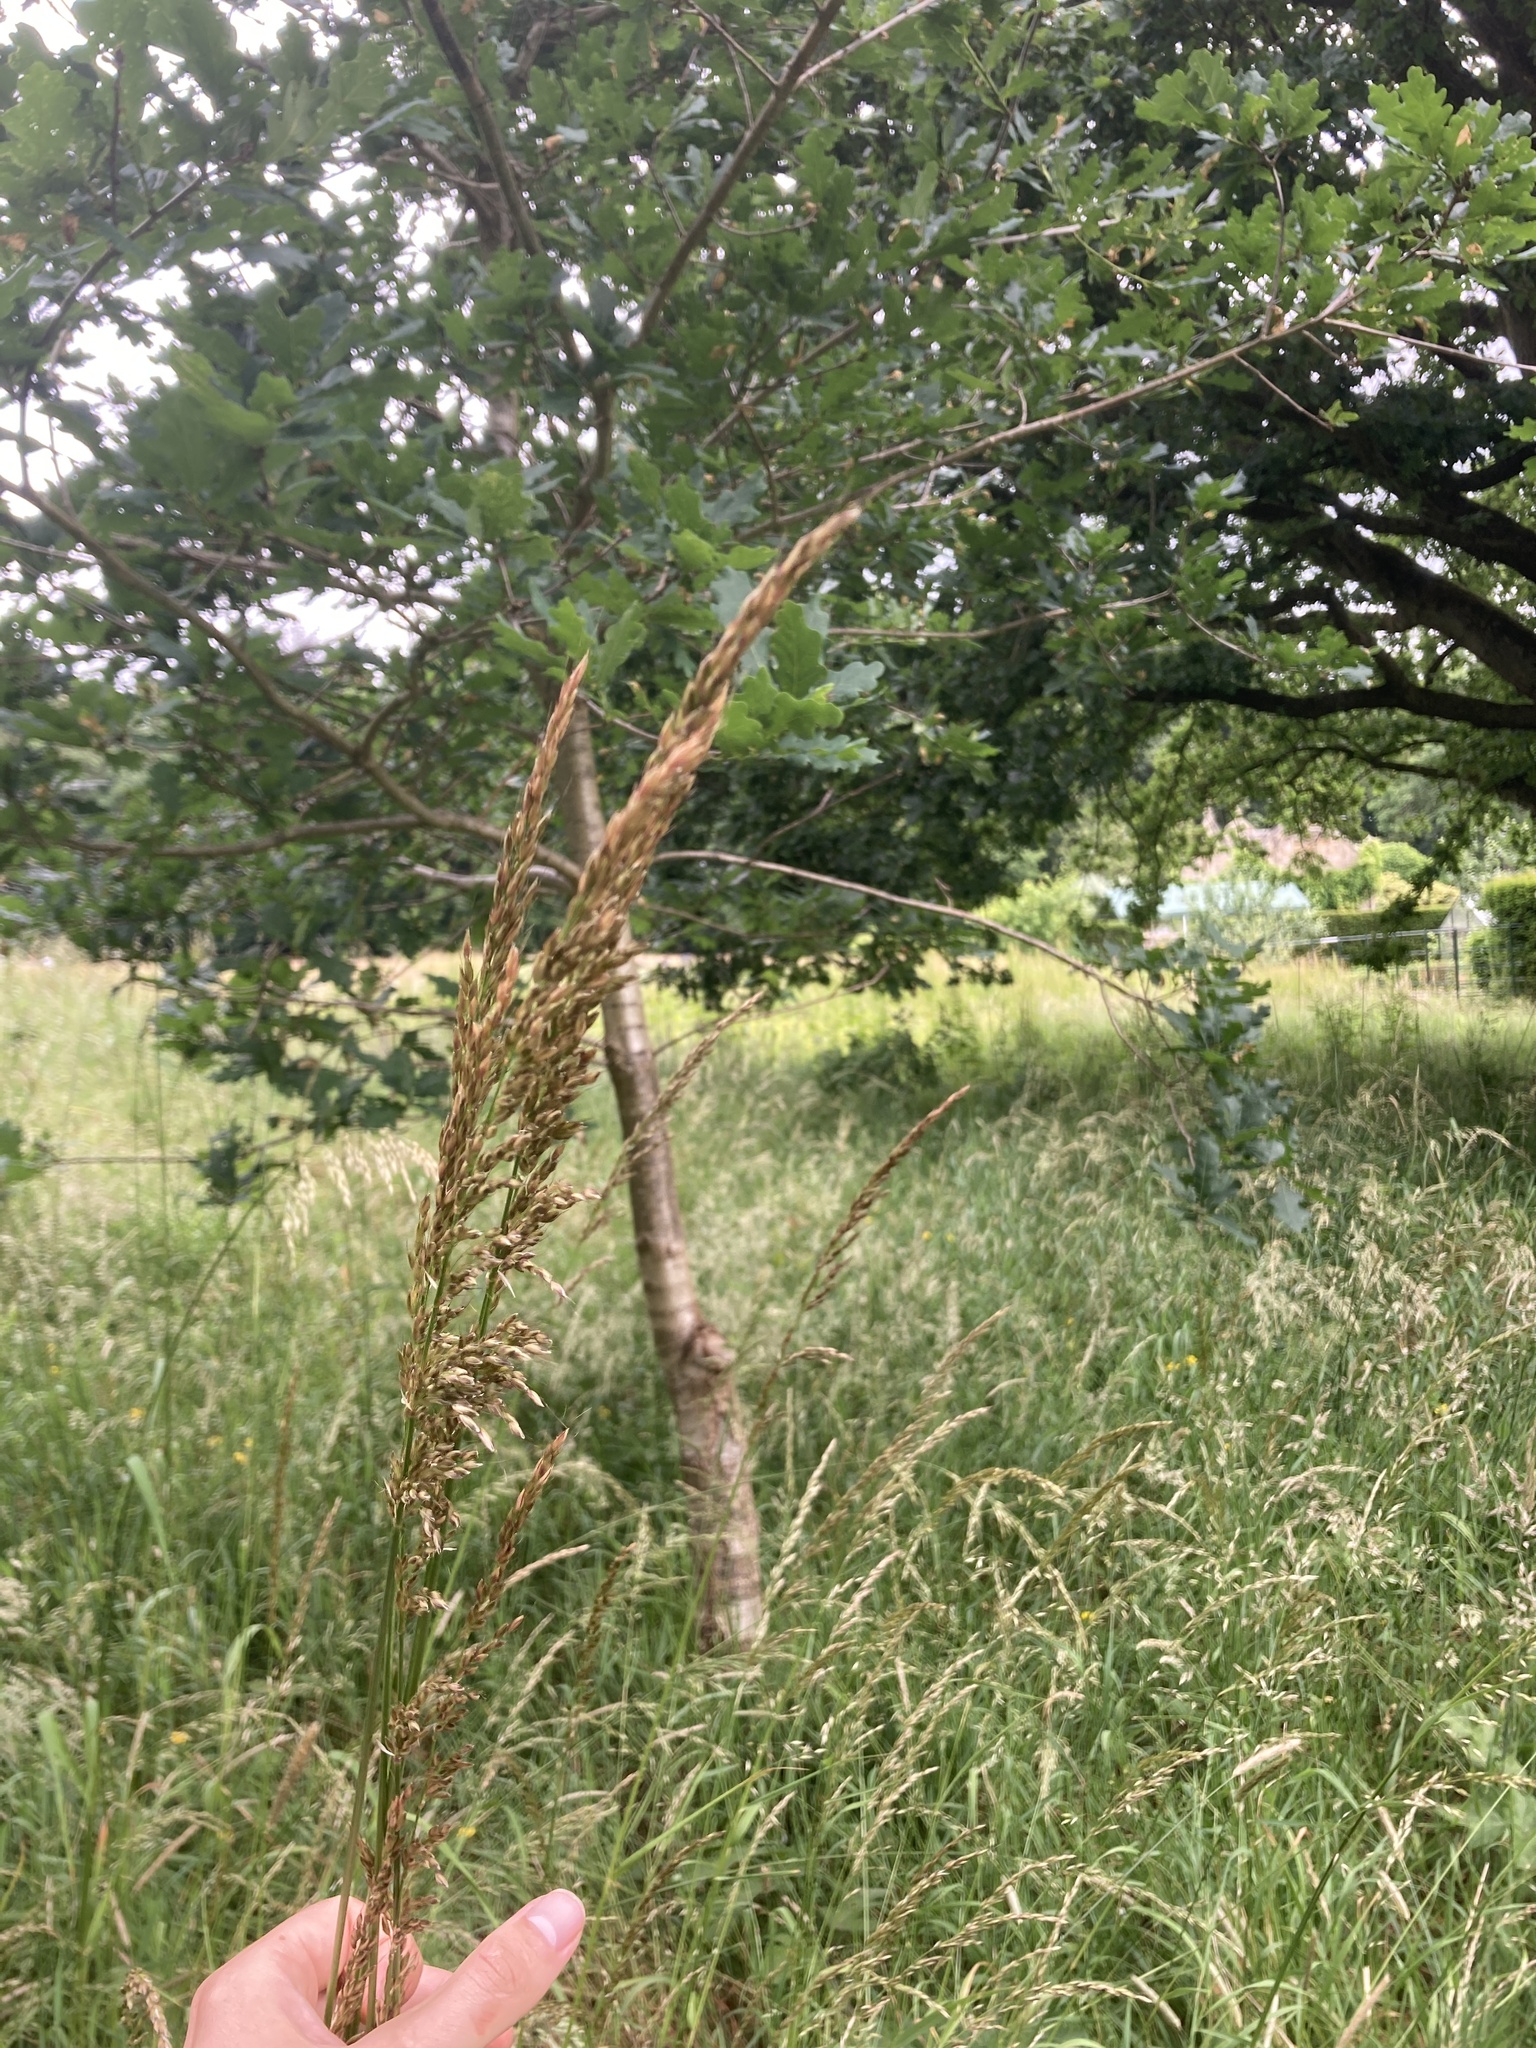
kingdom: Plantae
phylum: Tracheophyta
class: Liliopsida
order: Poales
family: Poaceae
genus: Arrhenatherum
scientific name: Arrhenatherum elatius
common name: Tall oatgrass
